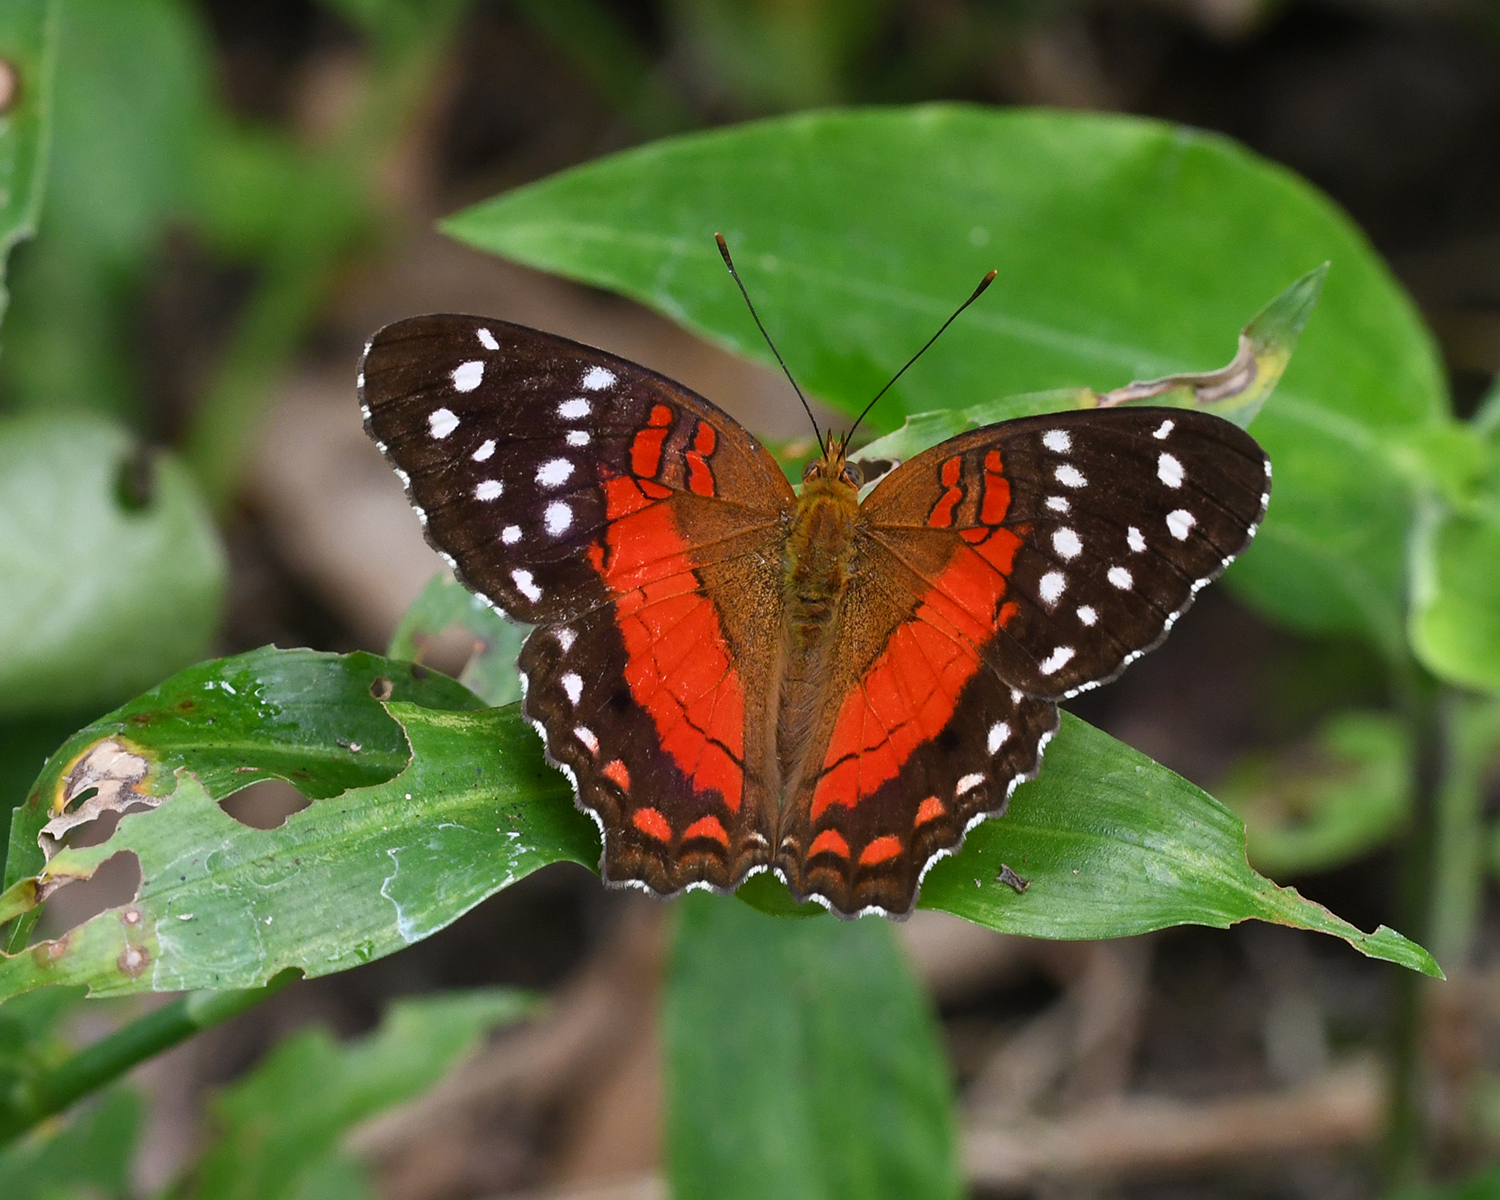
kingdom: Animalia
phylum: Arthropoda
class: Insecta
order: Lepidoptera
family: Nymphalidae
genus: Anartia
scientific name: Anartia amathea
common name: Red peacock
